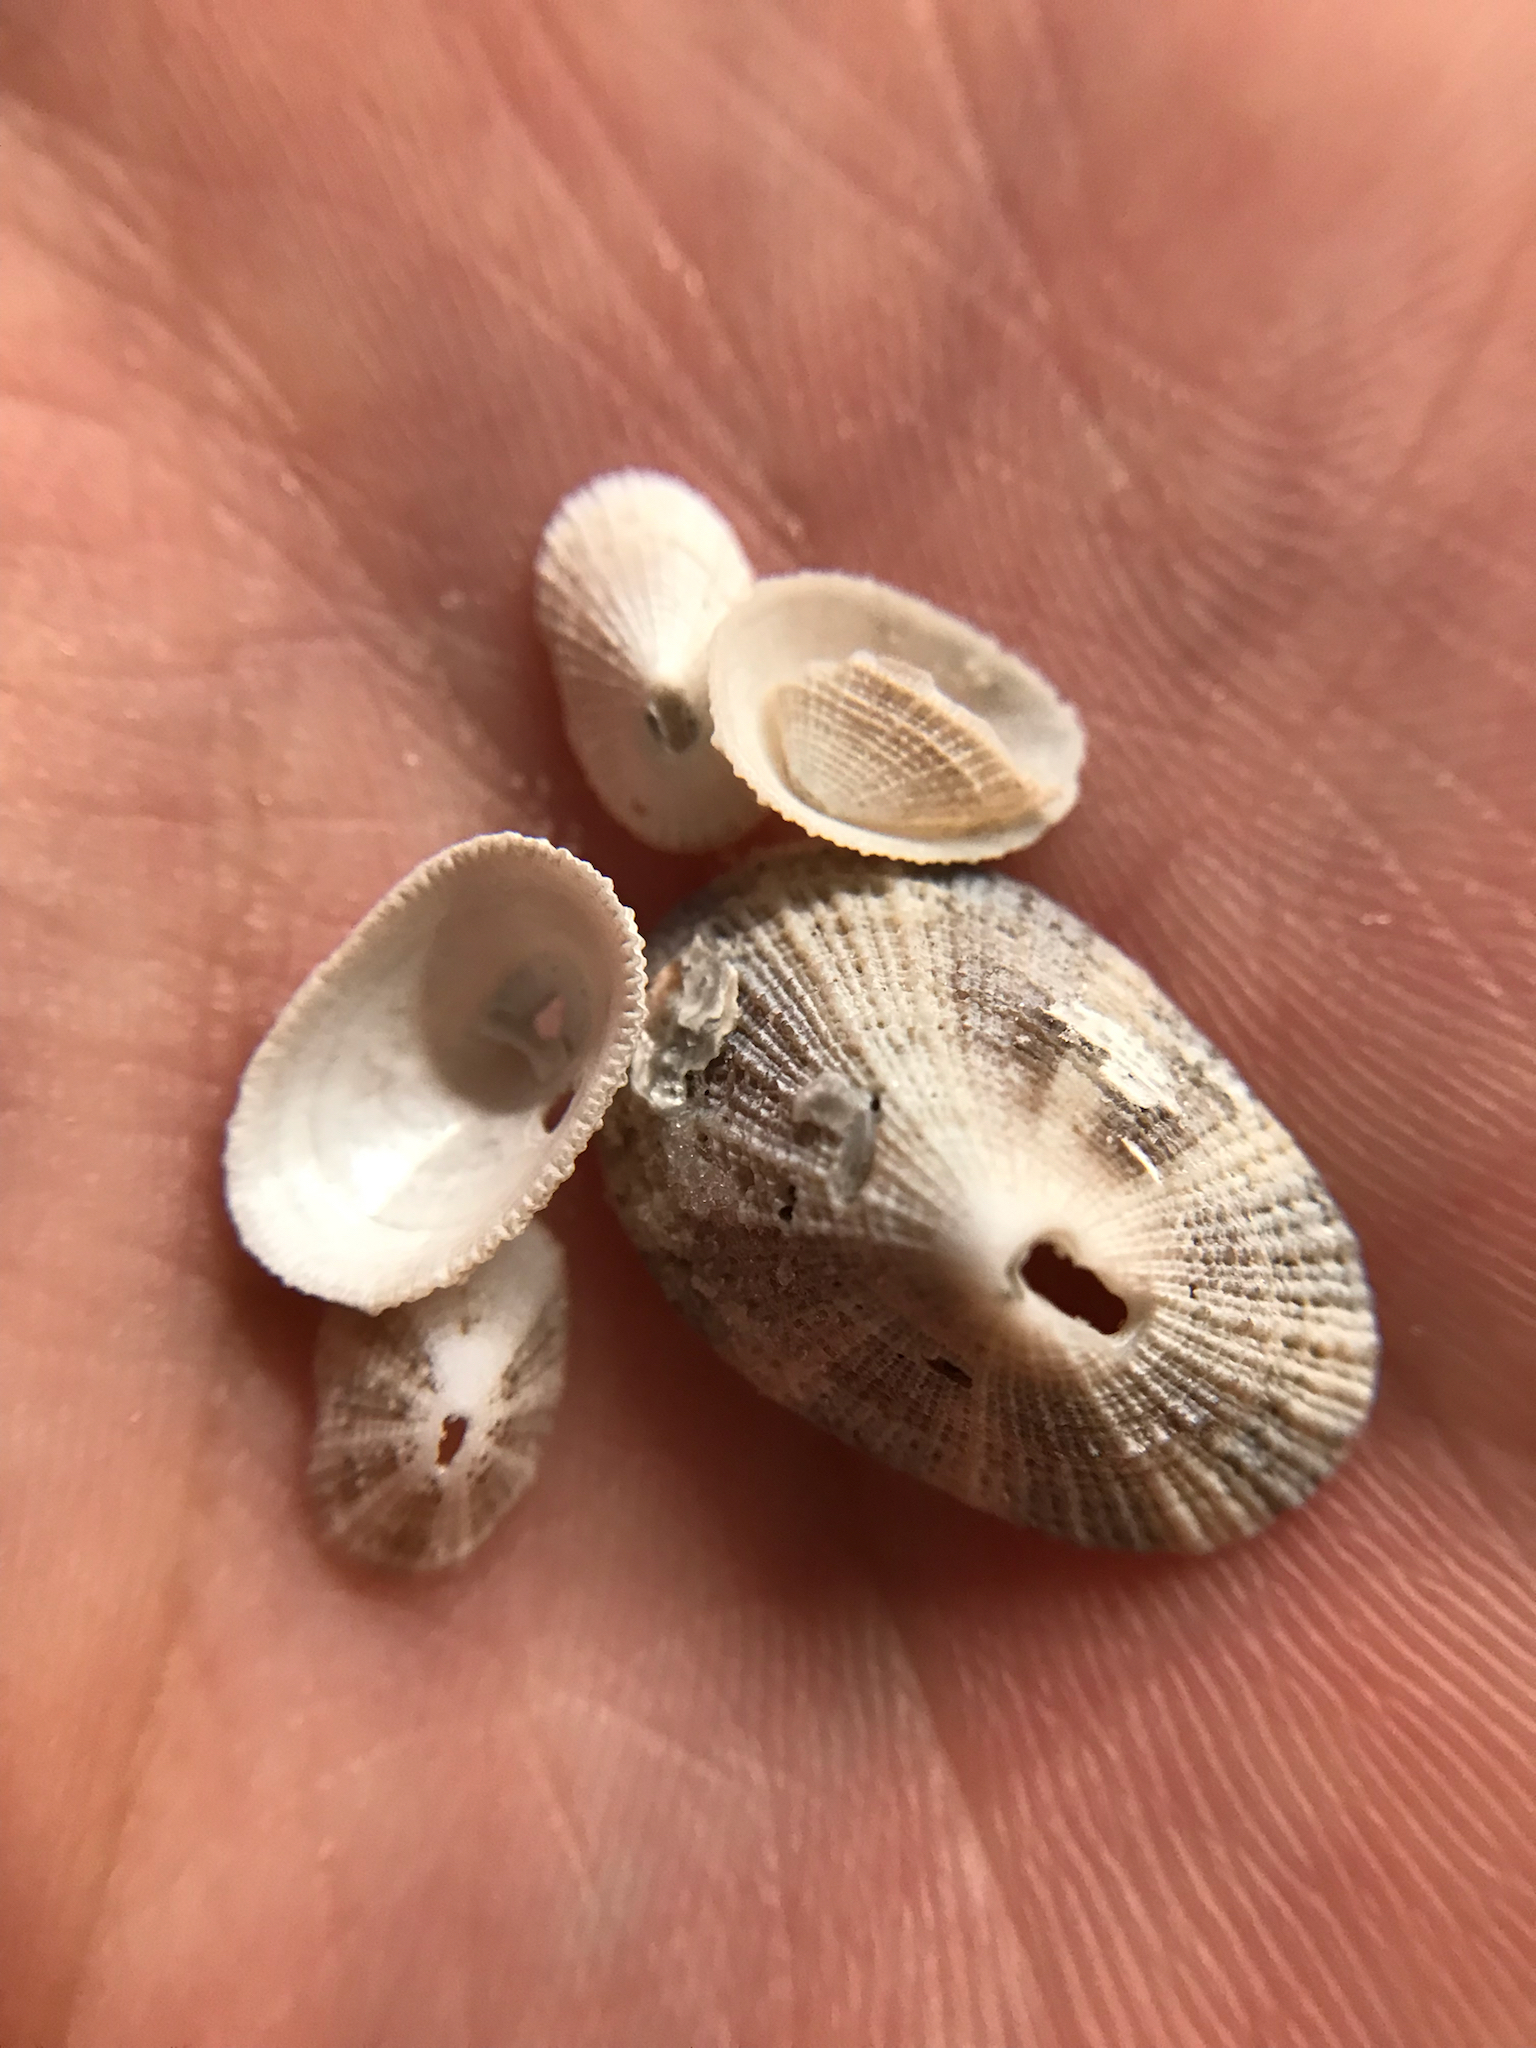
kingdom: Animalia
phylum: Mollusca
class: Gastropoda
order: Lepetellida
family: Fissurellidae
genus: Diodora
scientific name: Diodora cayenensis
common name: Cayenne keyhole limpet
